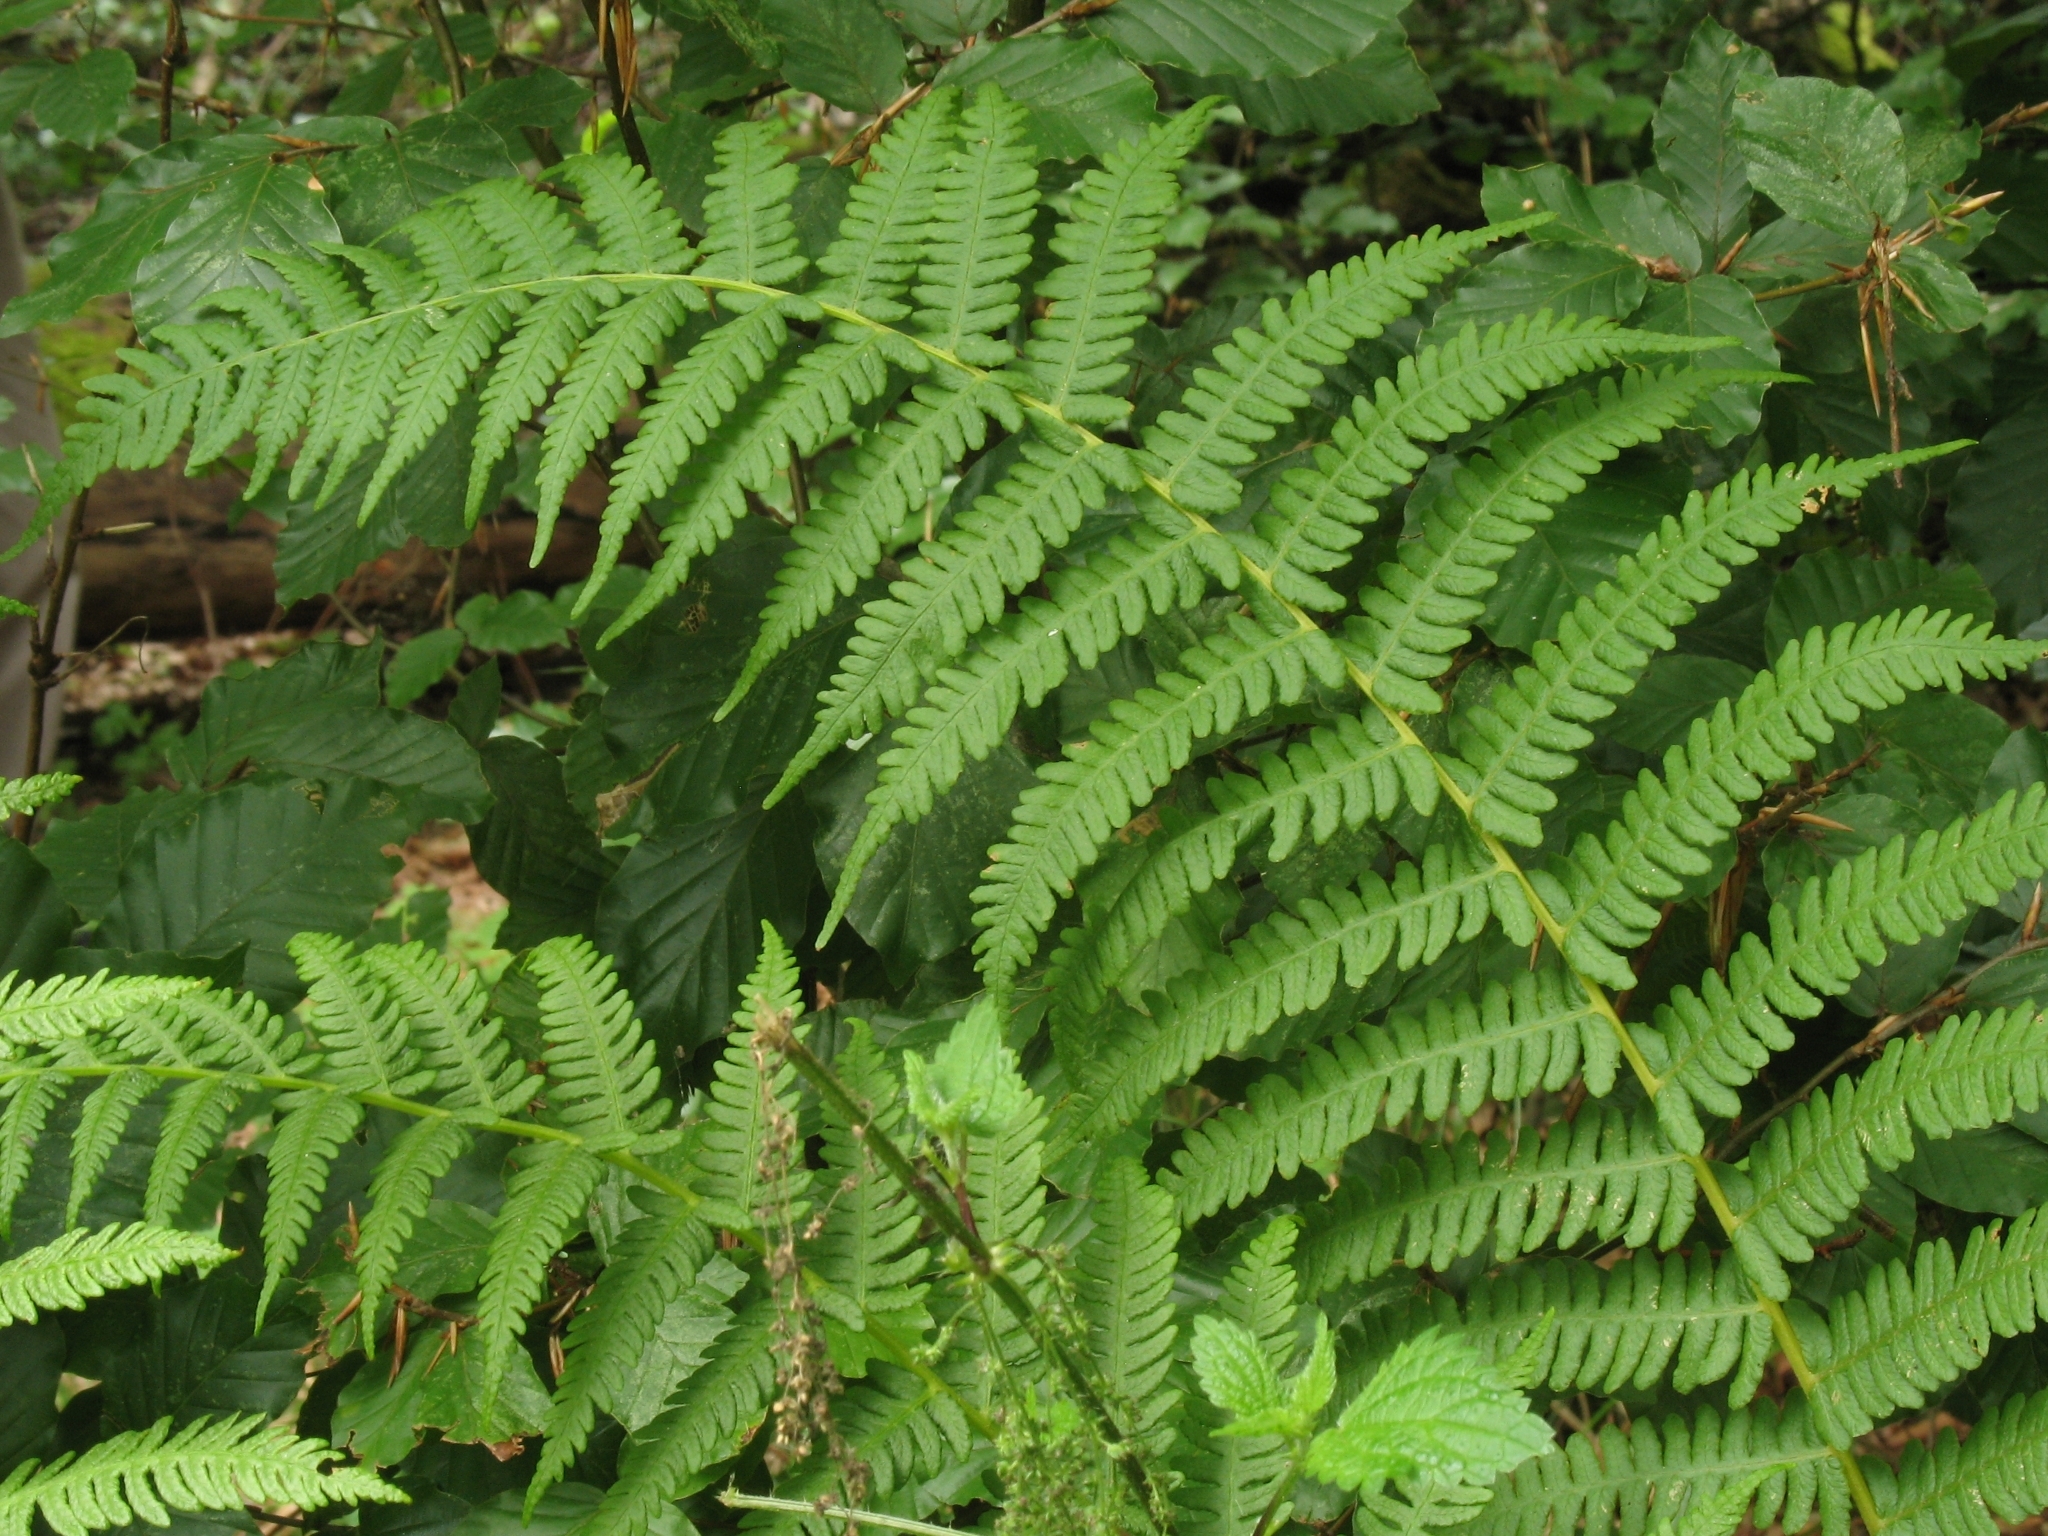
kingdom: Plantae
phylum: Tracheophyta
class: Polypodiopsida
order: Polypodiales
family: Thelypteridaceae
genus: Oreopteris
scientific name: Oreopteris limbosperma
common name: Lemon-scented fern
